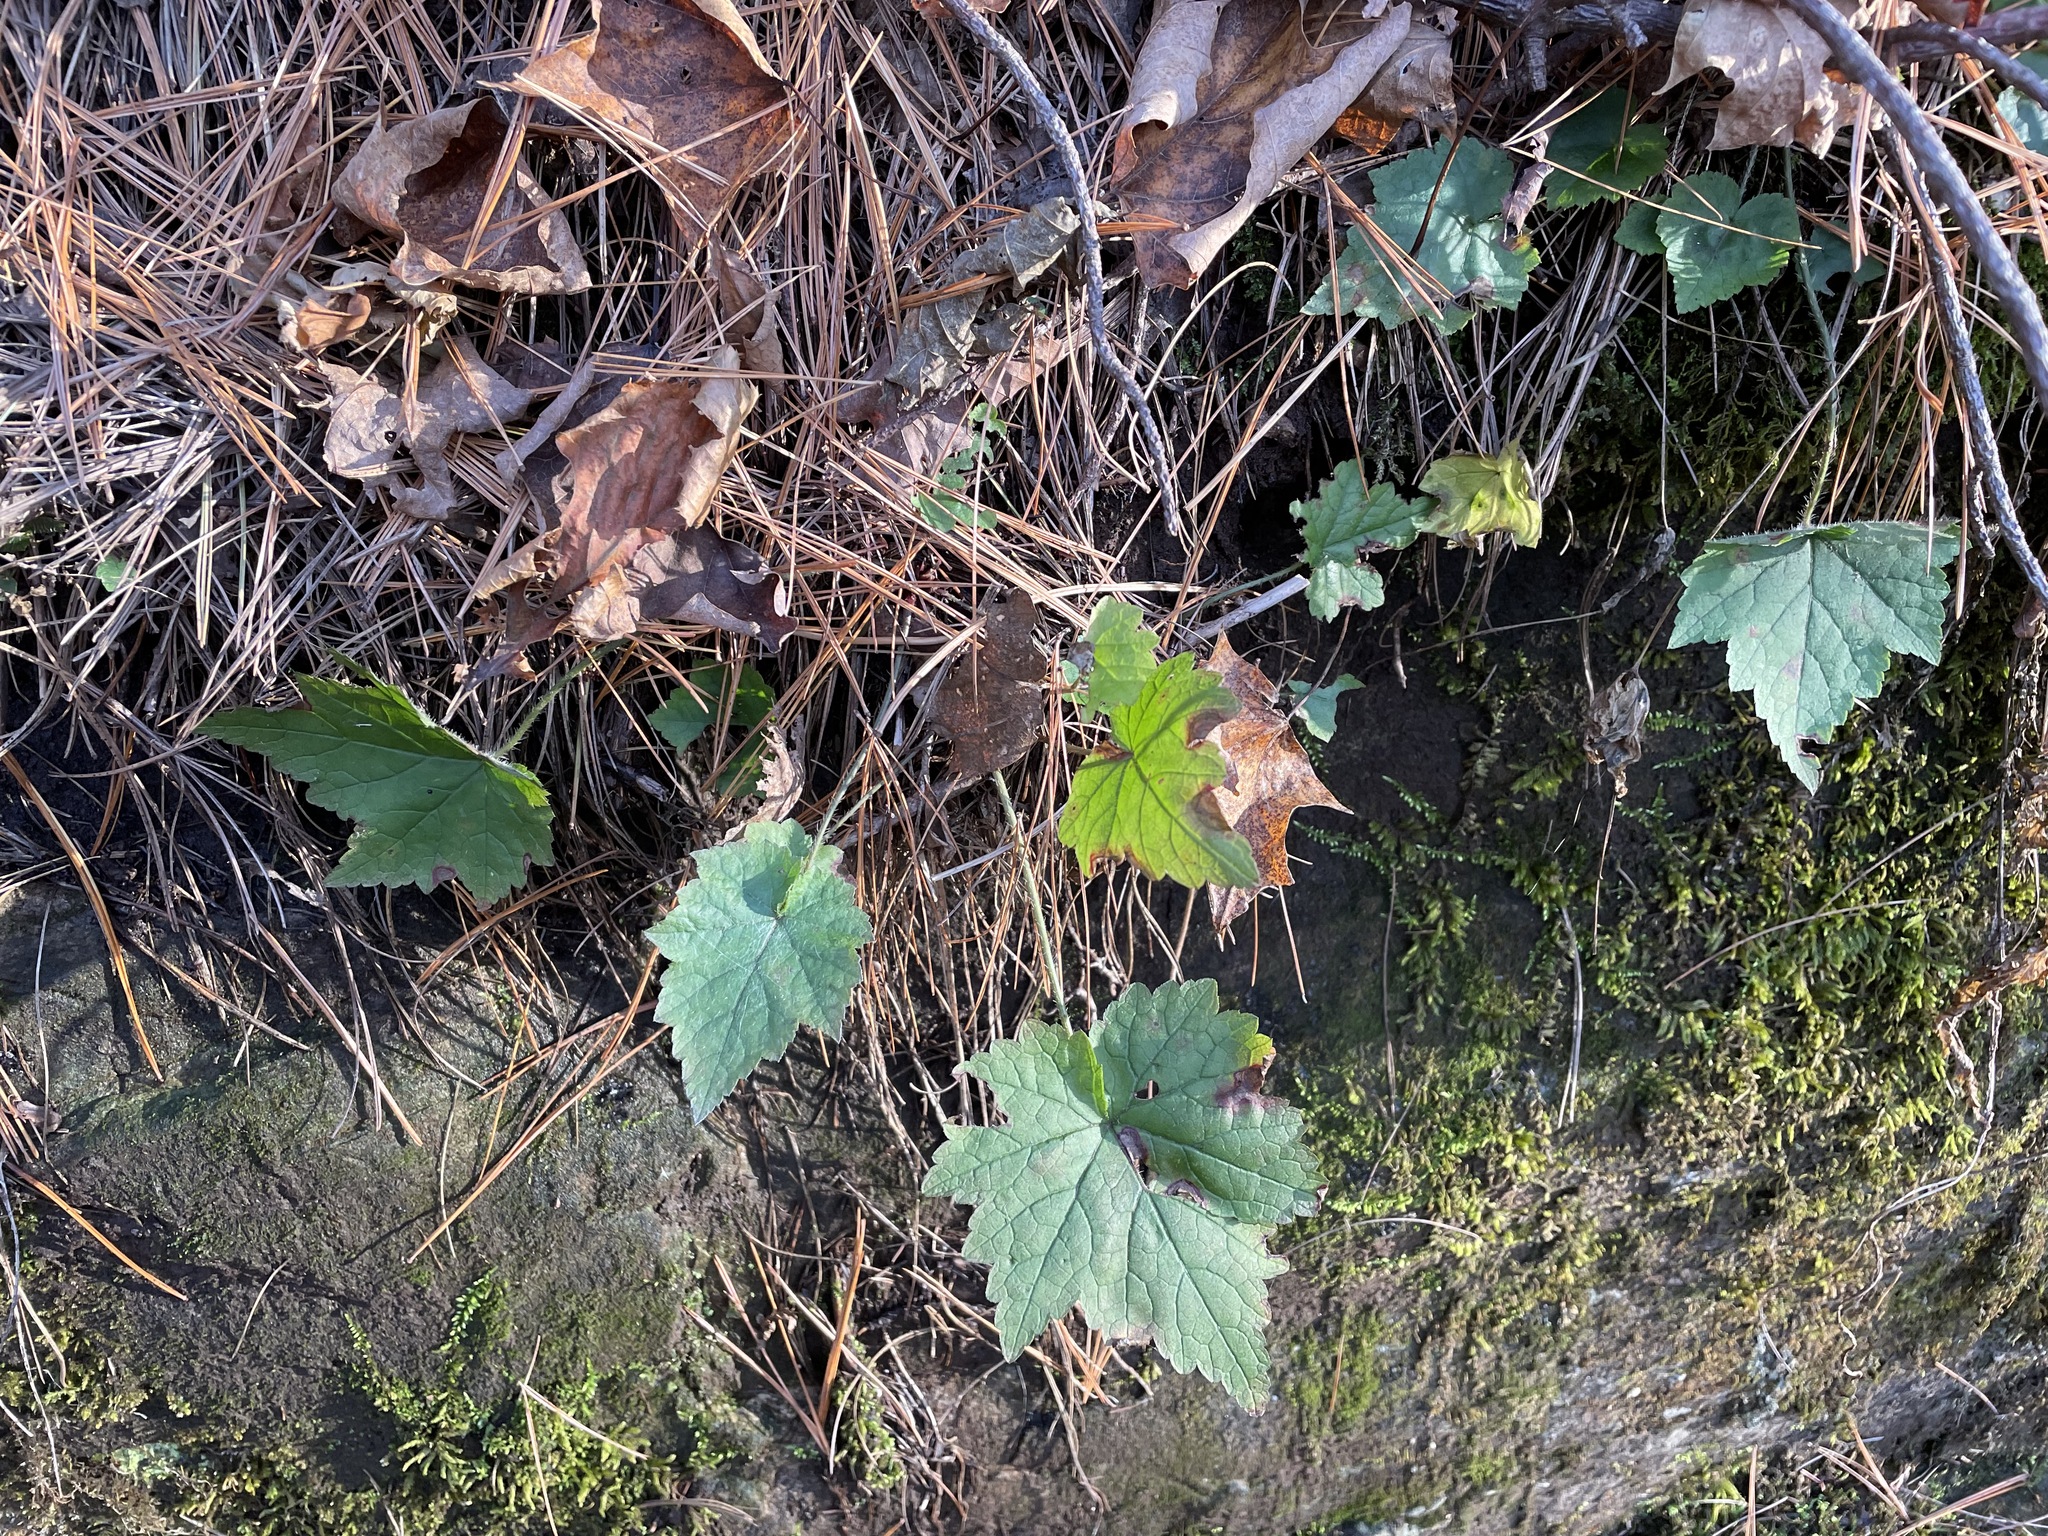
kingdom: Plantae
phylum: Tracheophyta
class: Magnoliopsida
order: Saxifragales
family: Saxifragaceae
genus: Mitella
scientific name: Mitella diphylla
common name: Coolwort
